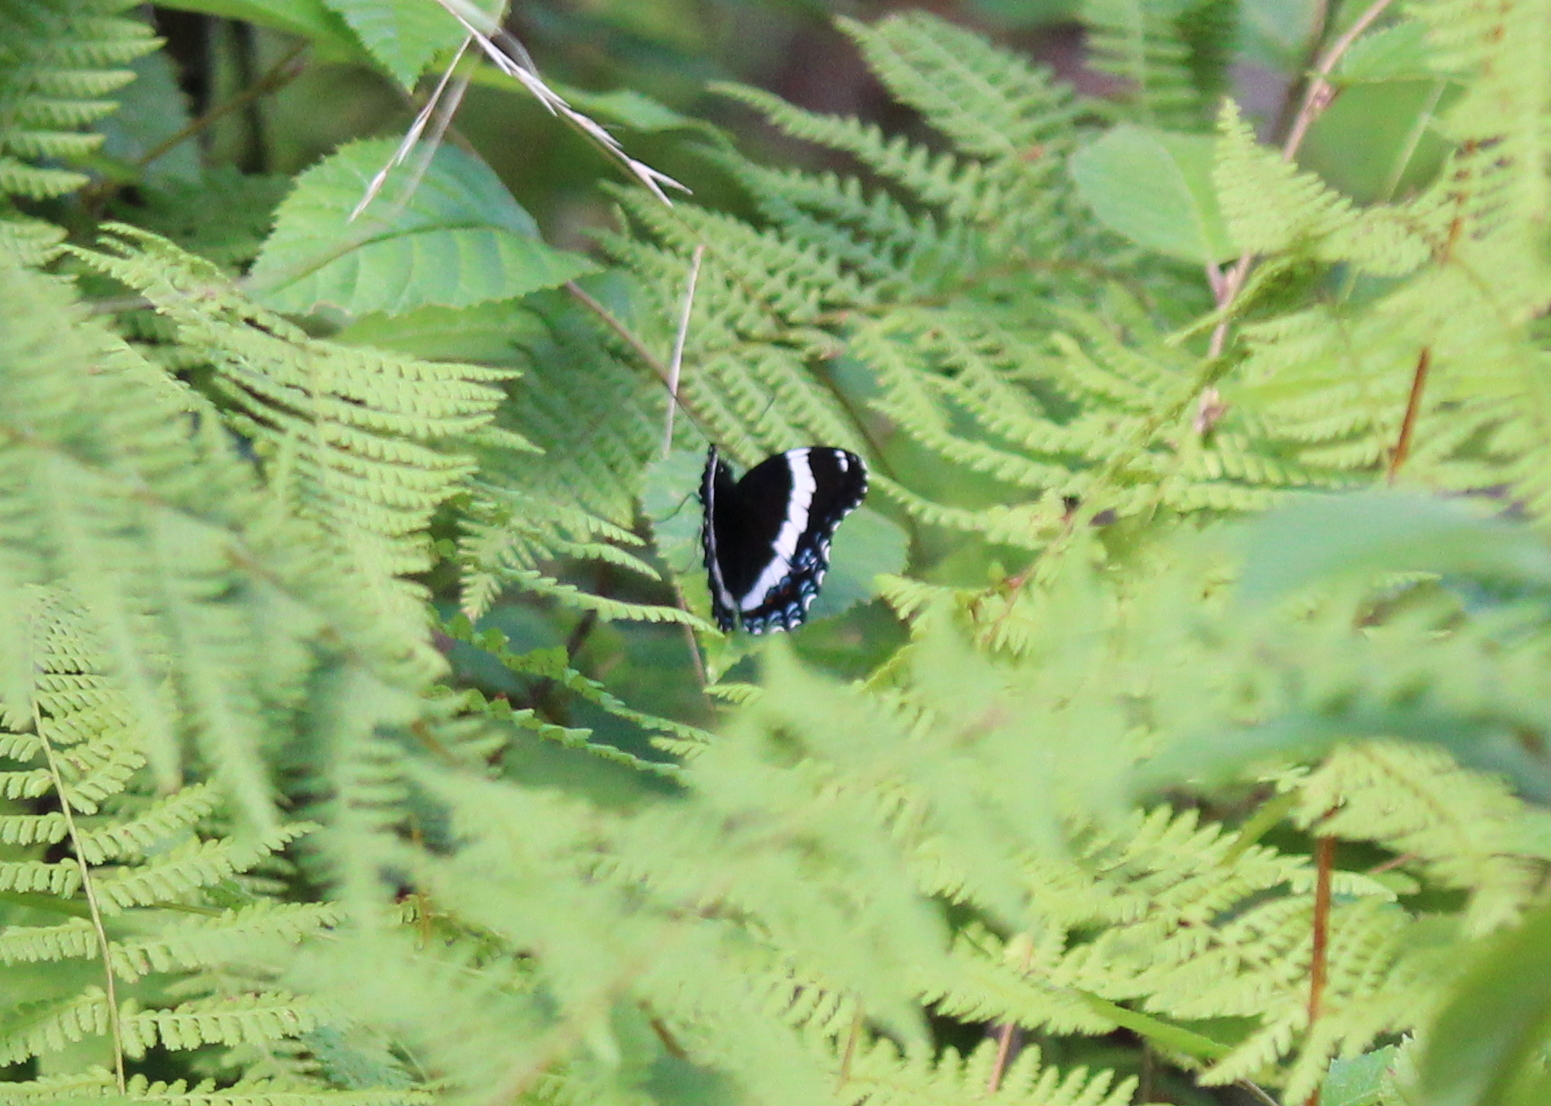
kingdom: Animalia
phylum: Arthropoda
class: Insecta
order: Lepidoptera
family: Nymphalidae
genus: Limenitis
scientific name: Limenitis arthemis
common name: Red-spotted admiral
